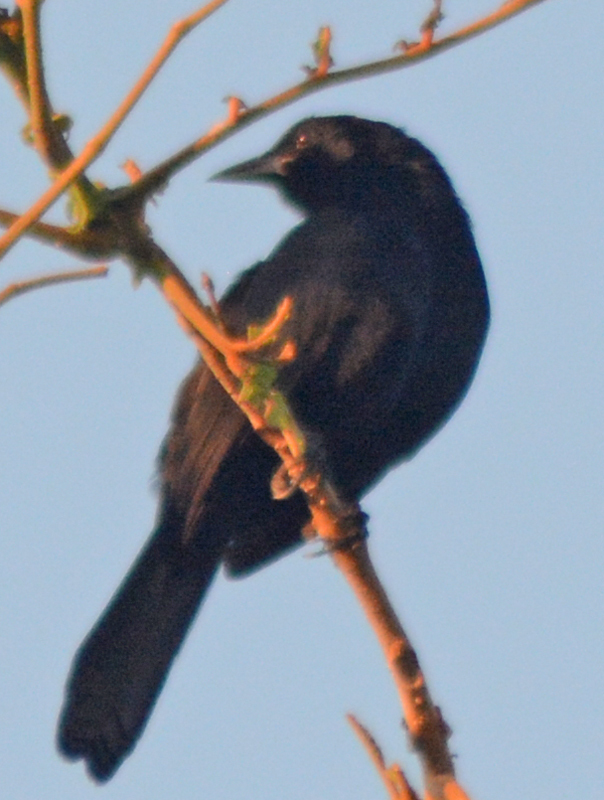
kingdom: Animalia
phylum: Chordata
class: Aves
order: Passeriformes
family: Icteridae
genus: Dives
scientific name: Dives dives
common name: Melodious blackbird
